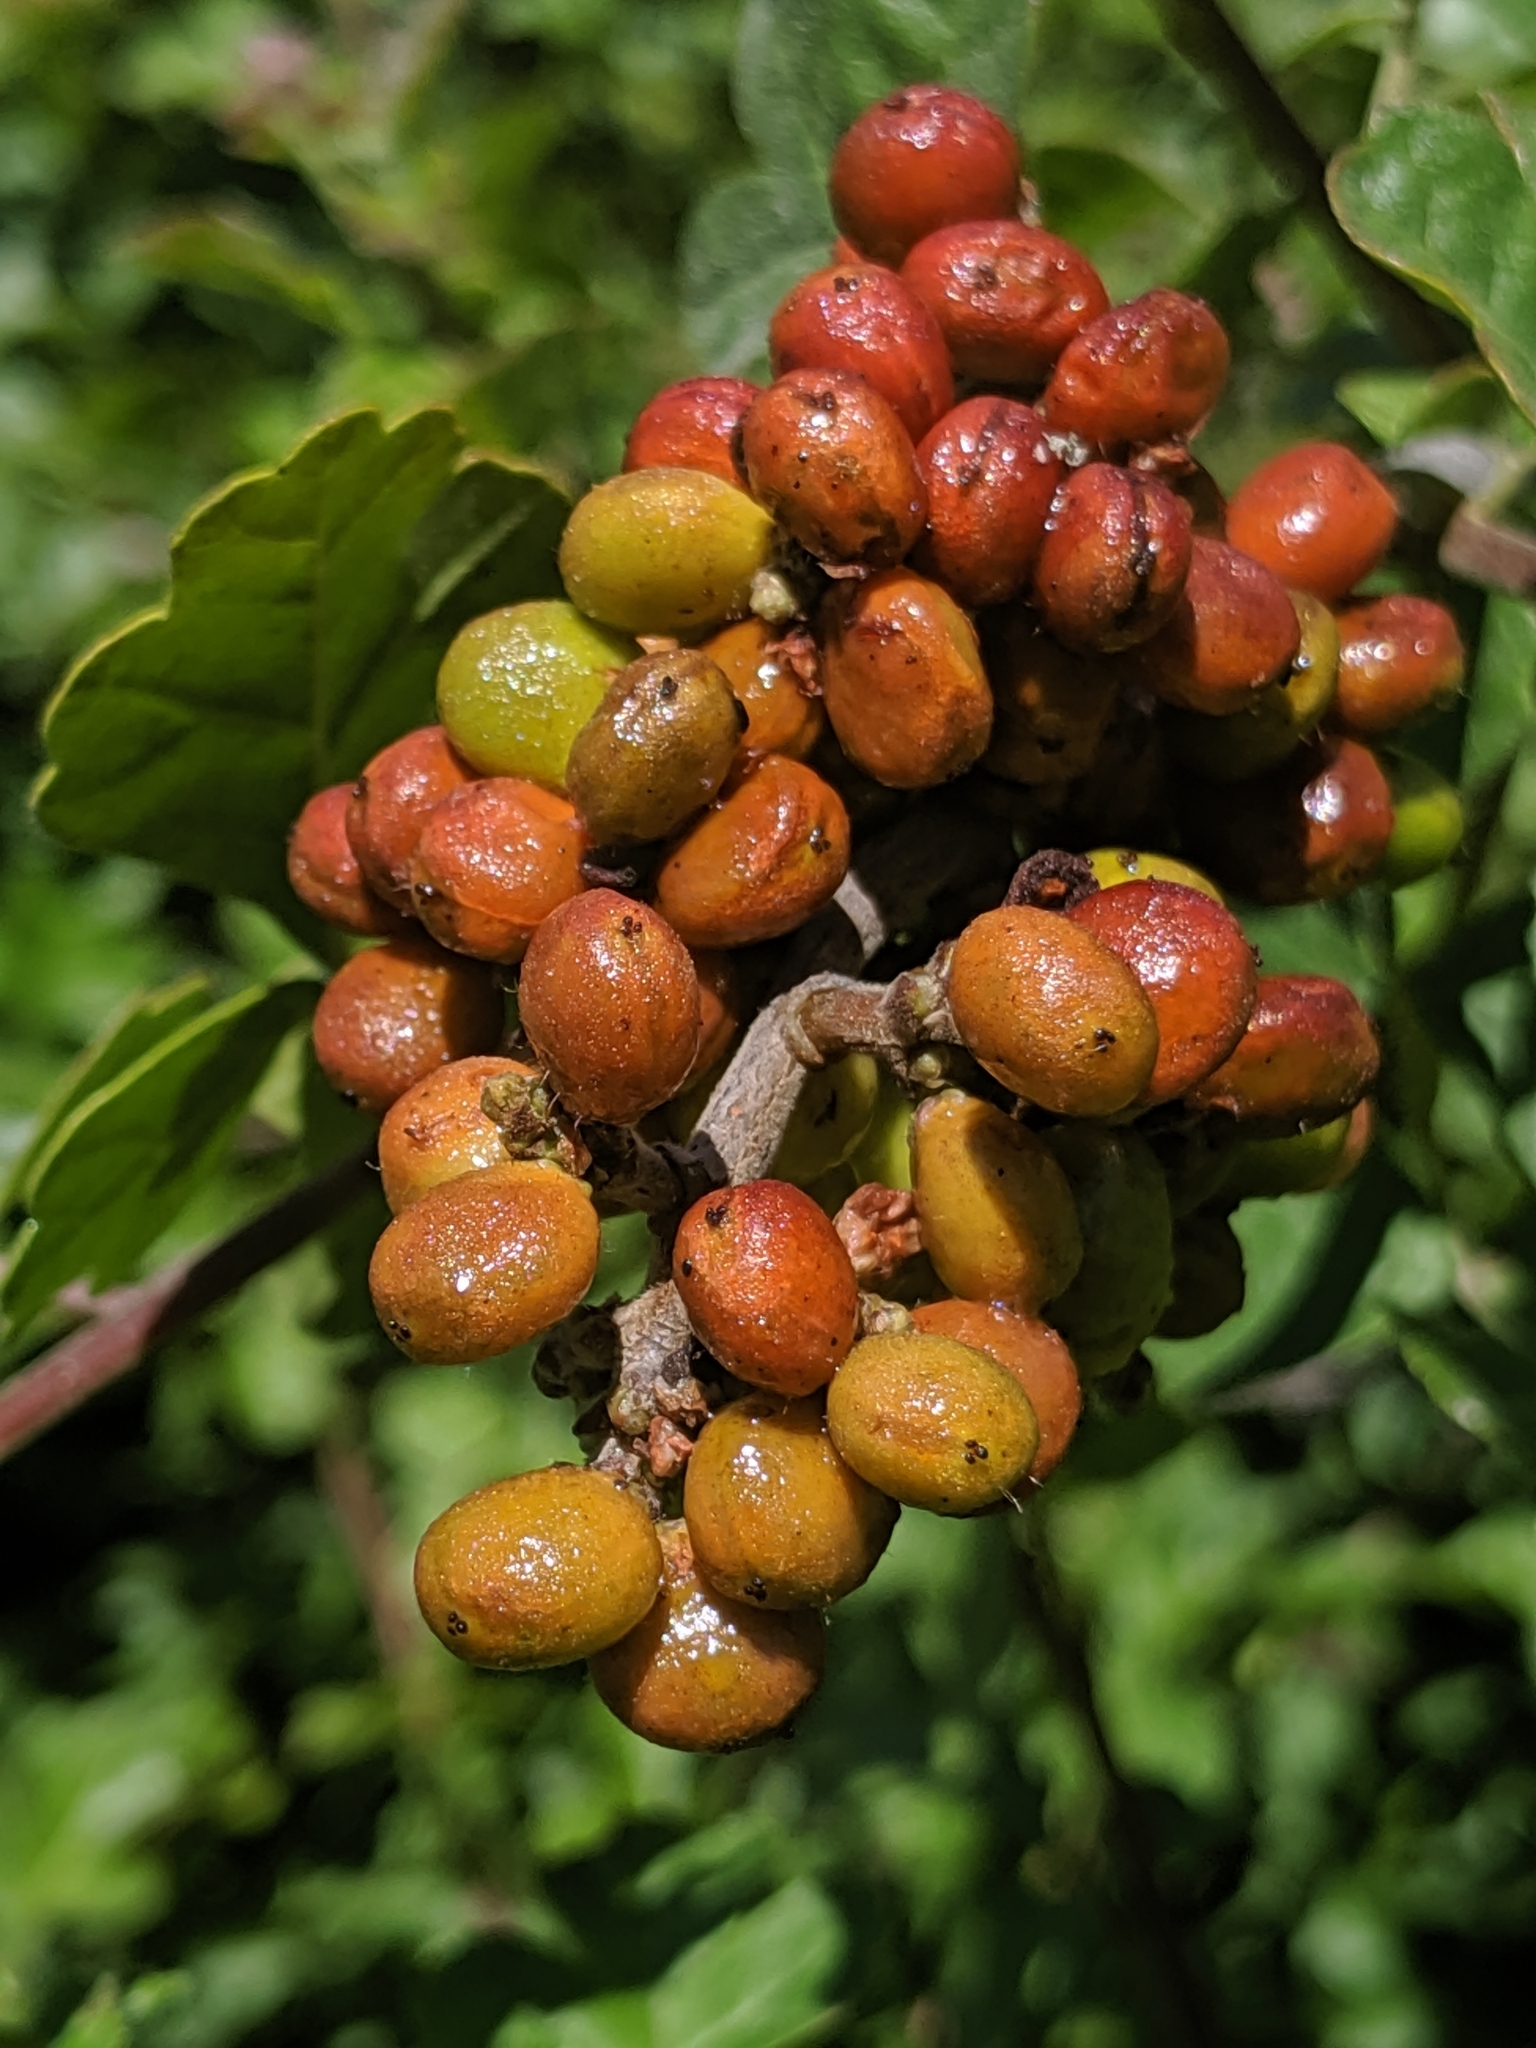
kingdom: Plantae
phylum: Tracheophyta
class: Magnoliopsida
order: Sapindales
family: Anacardiaceae
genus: Rhus
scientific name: Rhus aromatica
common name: Aromatic sumac
